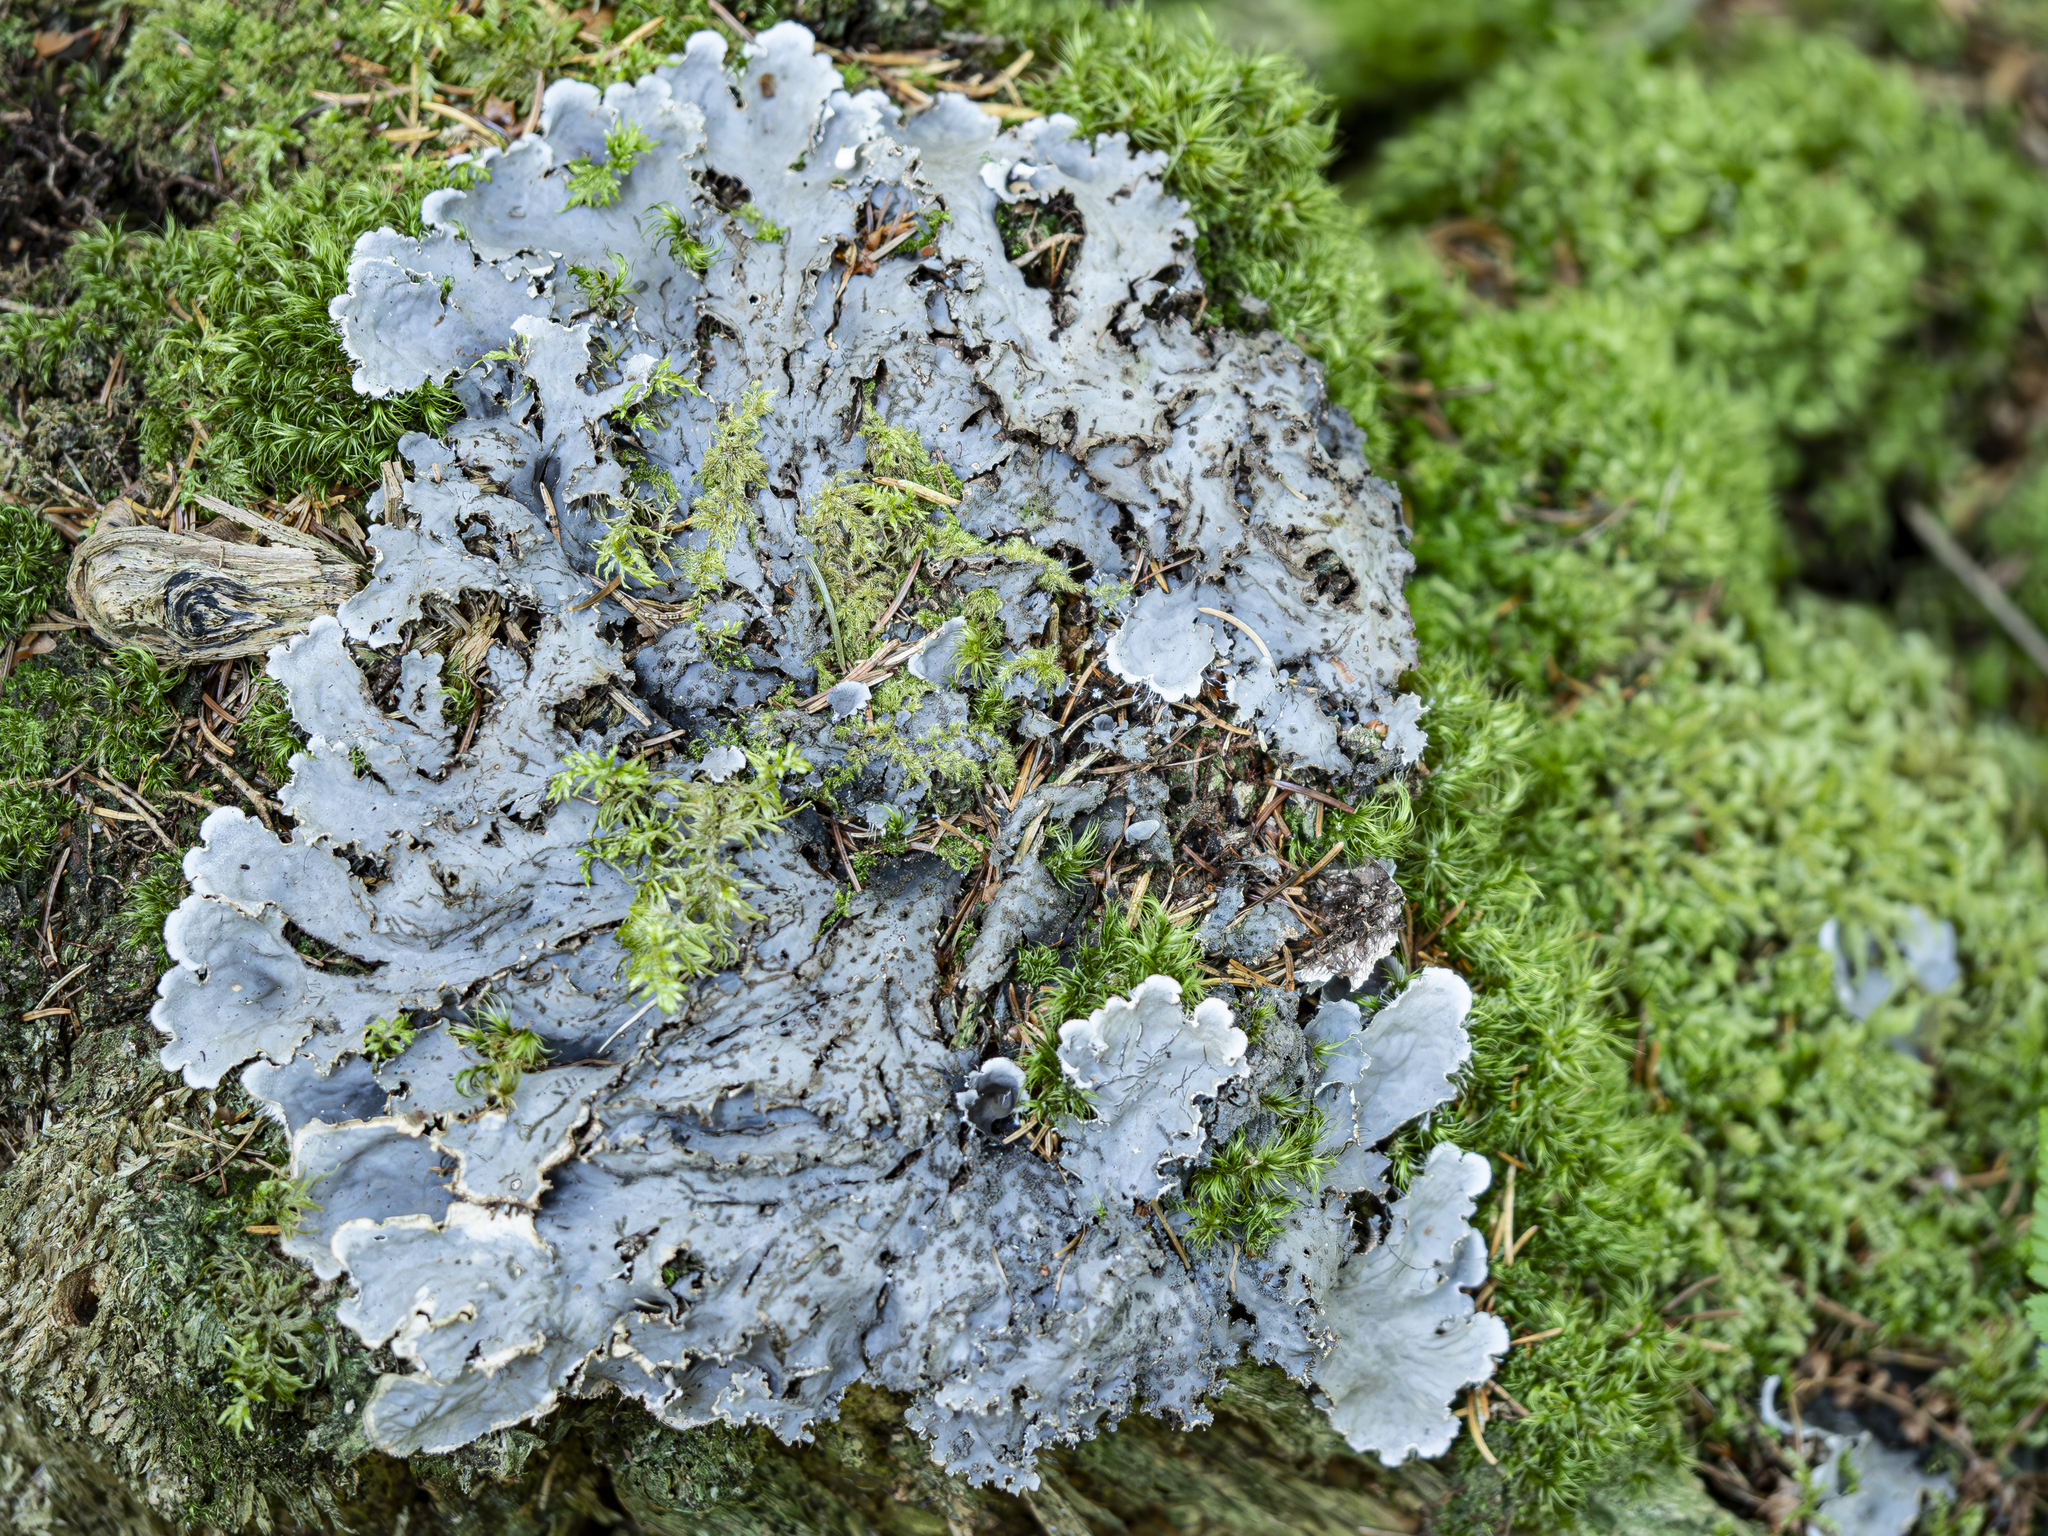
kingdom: Fungi
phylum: Ascomycota
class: Lecanoromycetes
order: Peltigerales
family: Peltigeraceae
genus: Peltigera
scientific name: Peltigera praetextata
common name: Scaly dog-lichen
